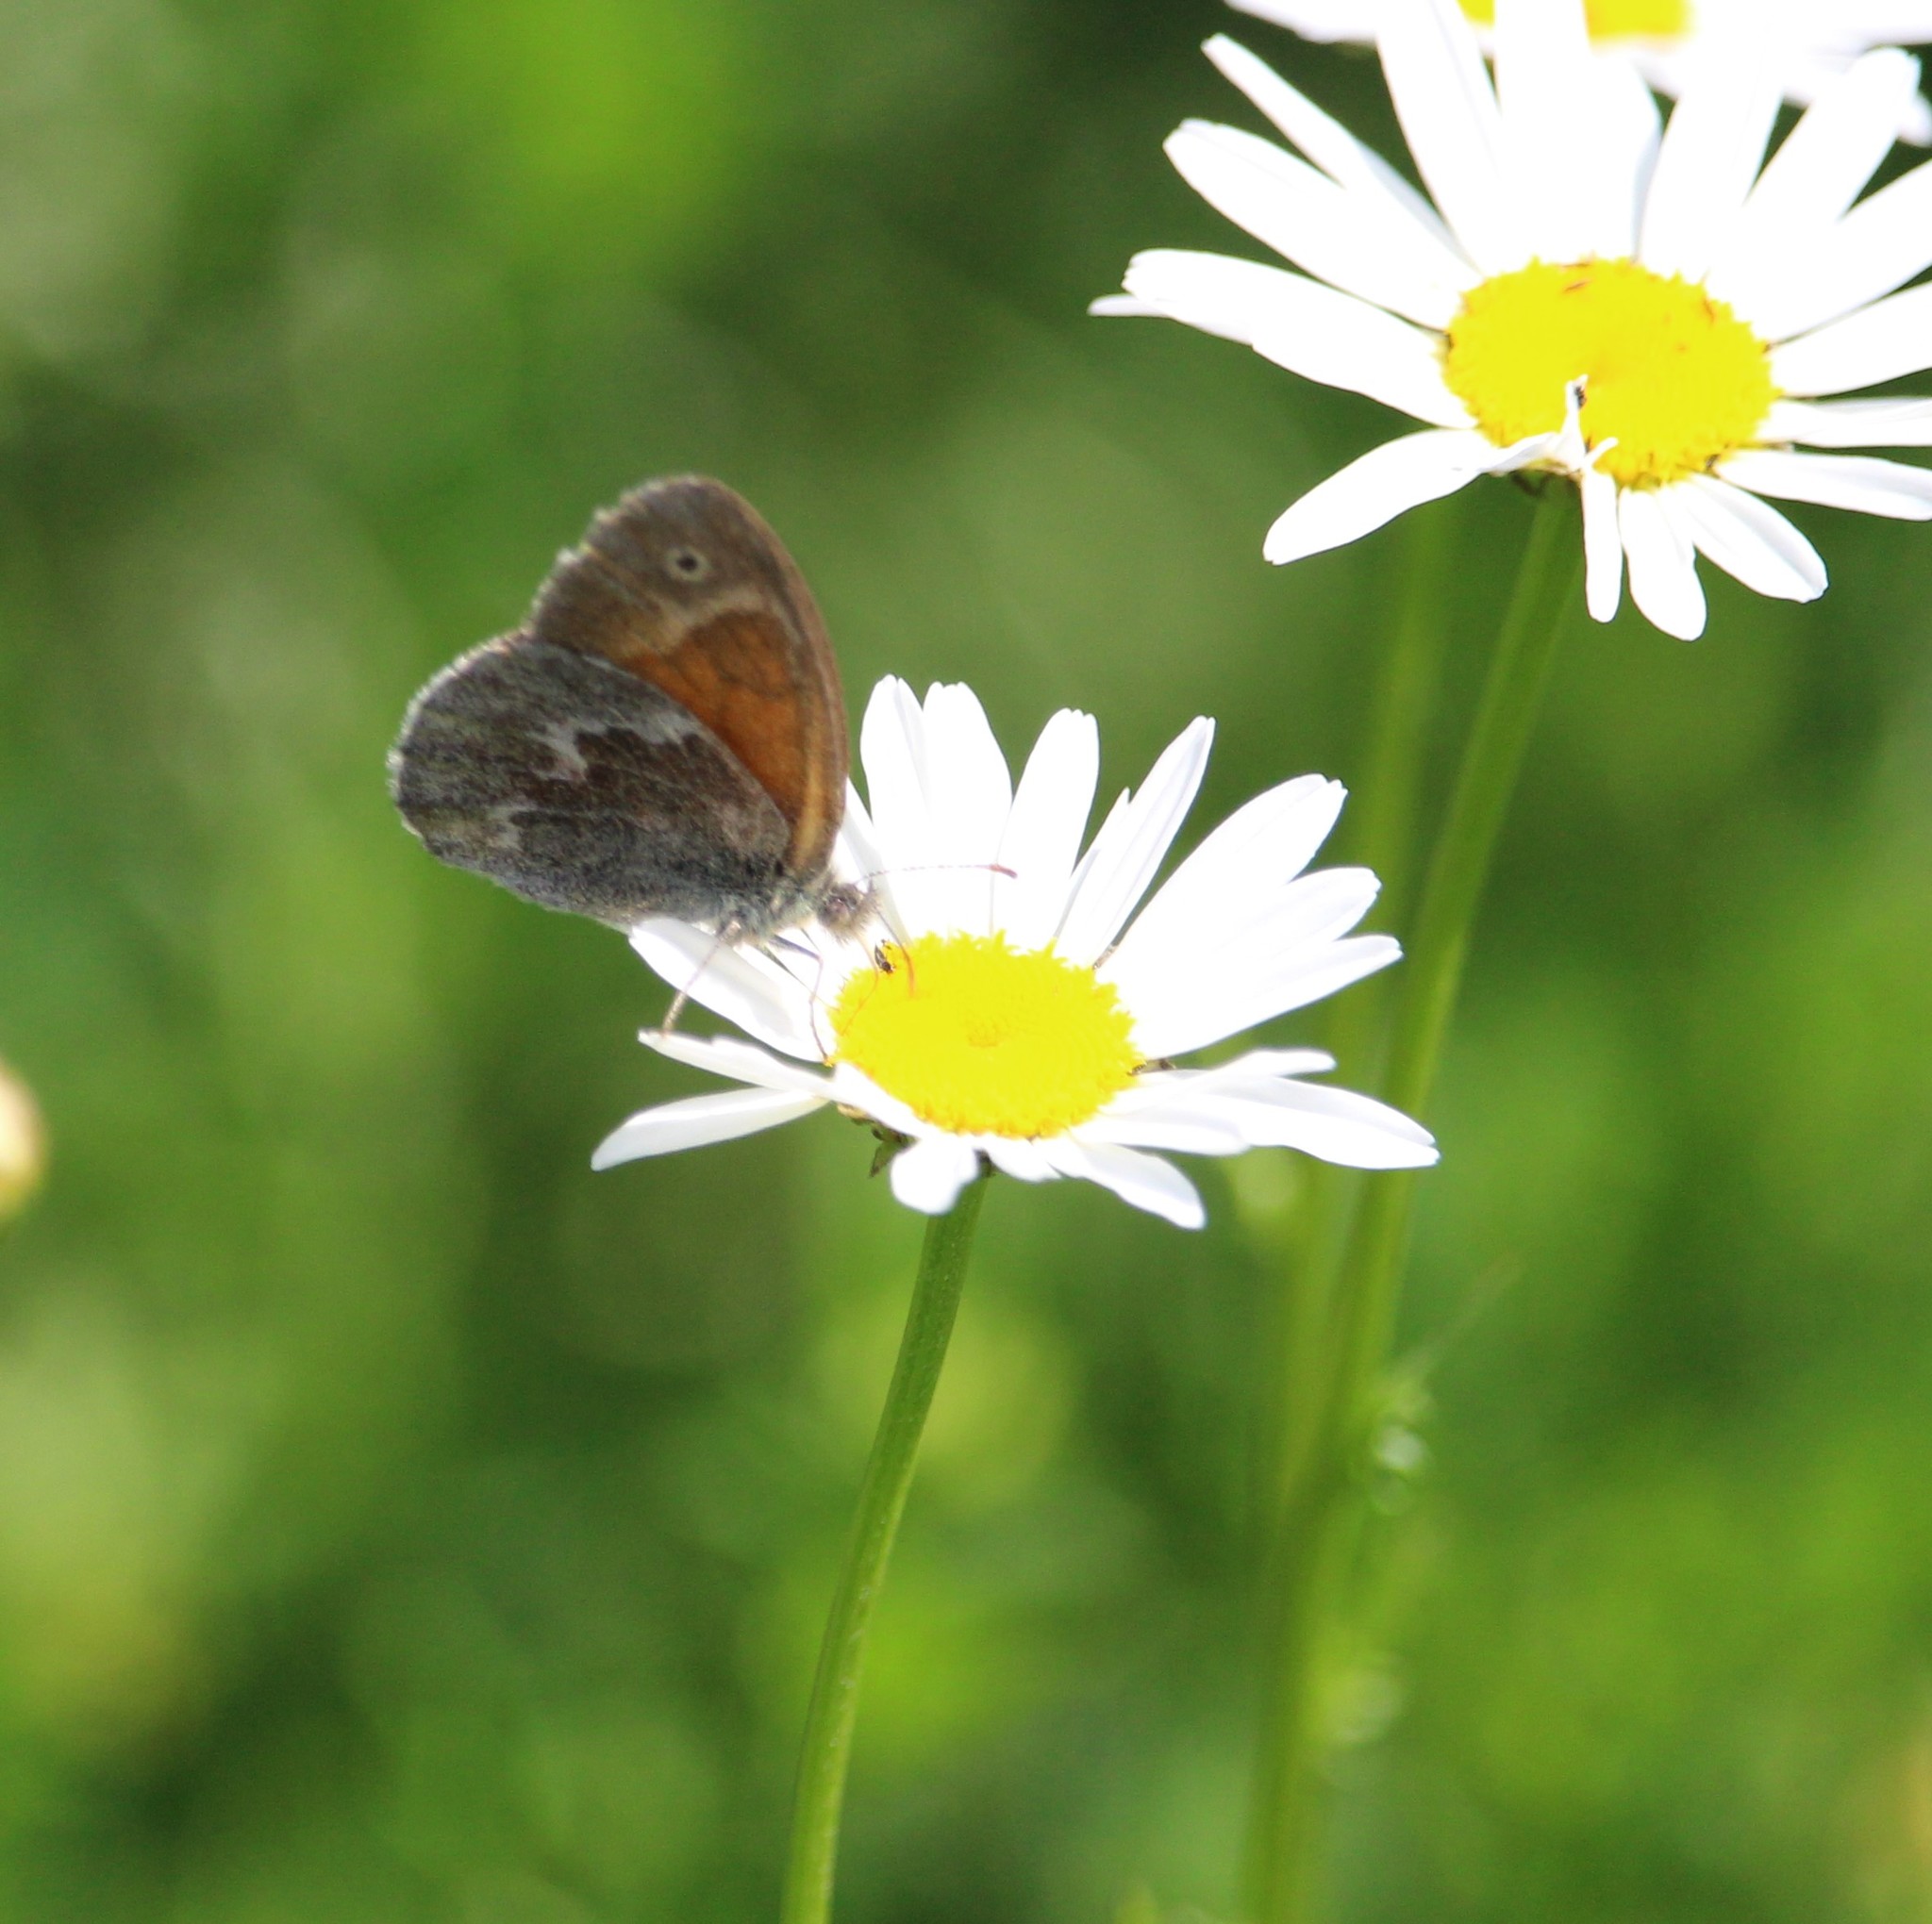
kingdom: Animalia
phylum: Arthropoda
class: Insecta
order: Lepidoptera
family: Nymphalidae
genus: Coenonympha
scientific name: Coenonympha california
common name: Common ringlet
